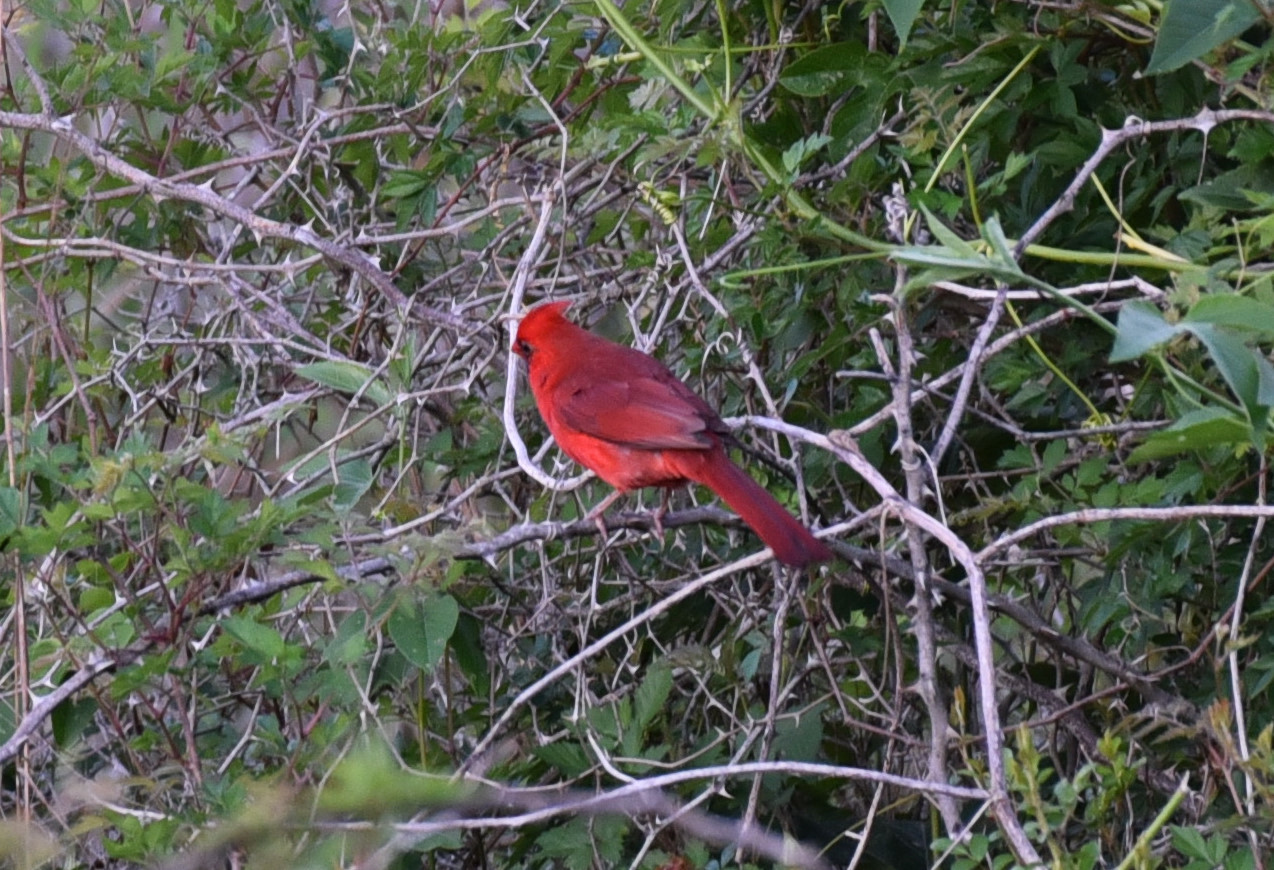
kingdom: Animalia
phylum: Chordata
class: Aves
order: Passeriformes
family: Cardinalidae
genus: Cardinalis
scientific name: Cardinalis cardinalis
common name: Northern cardinal
